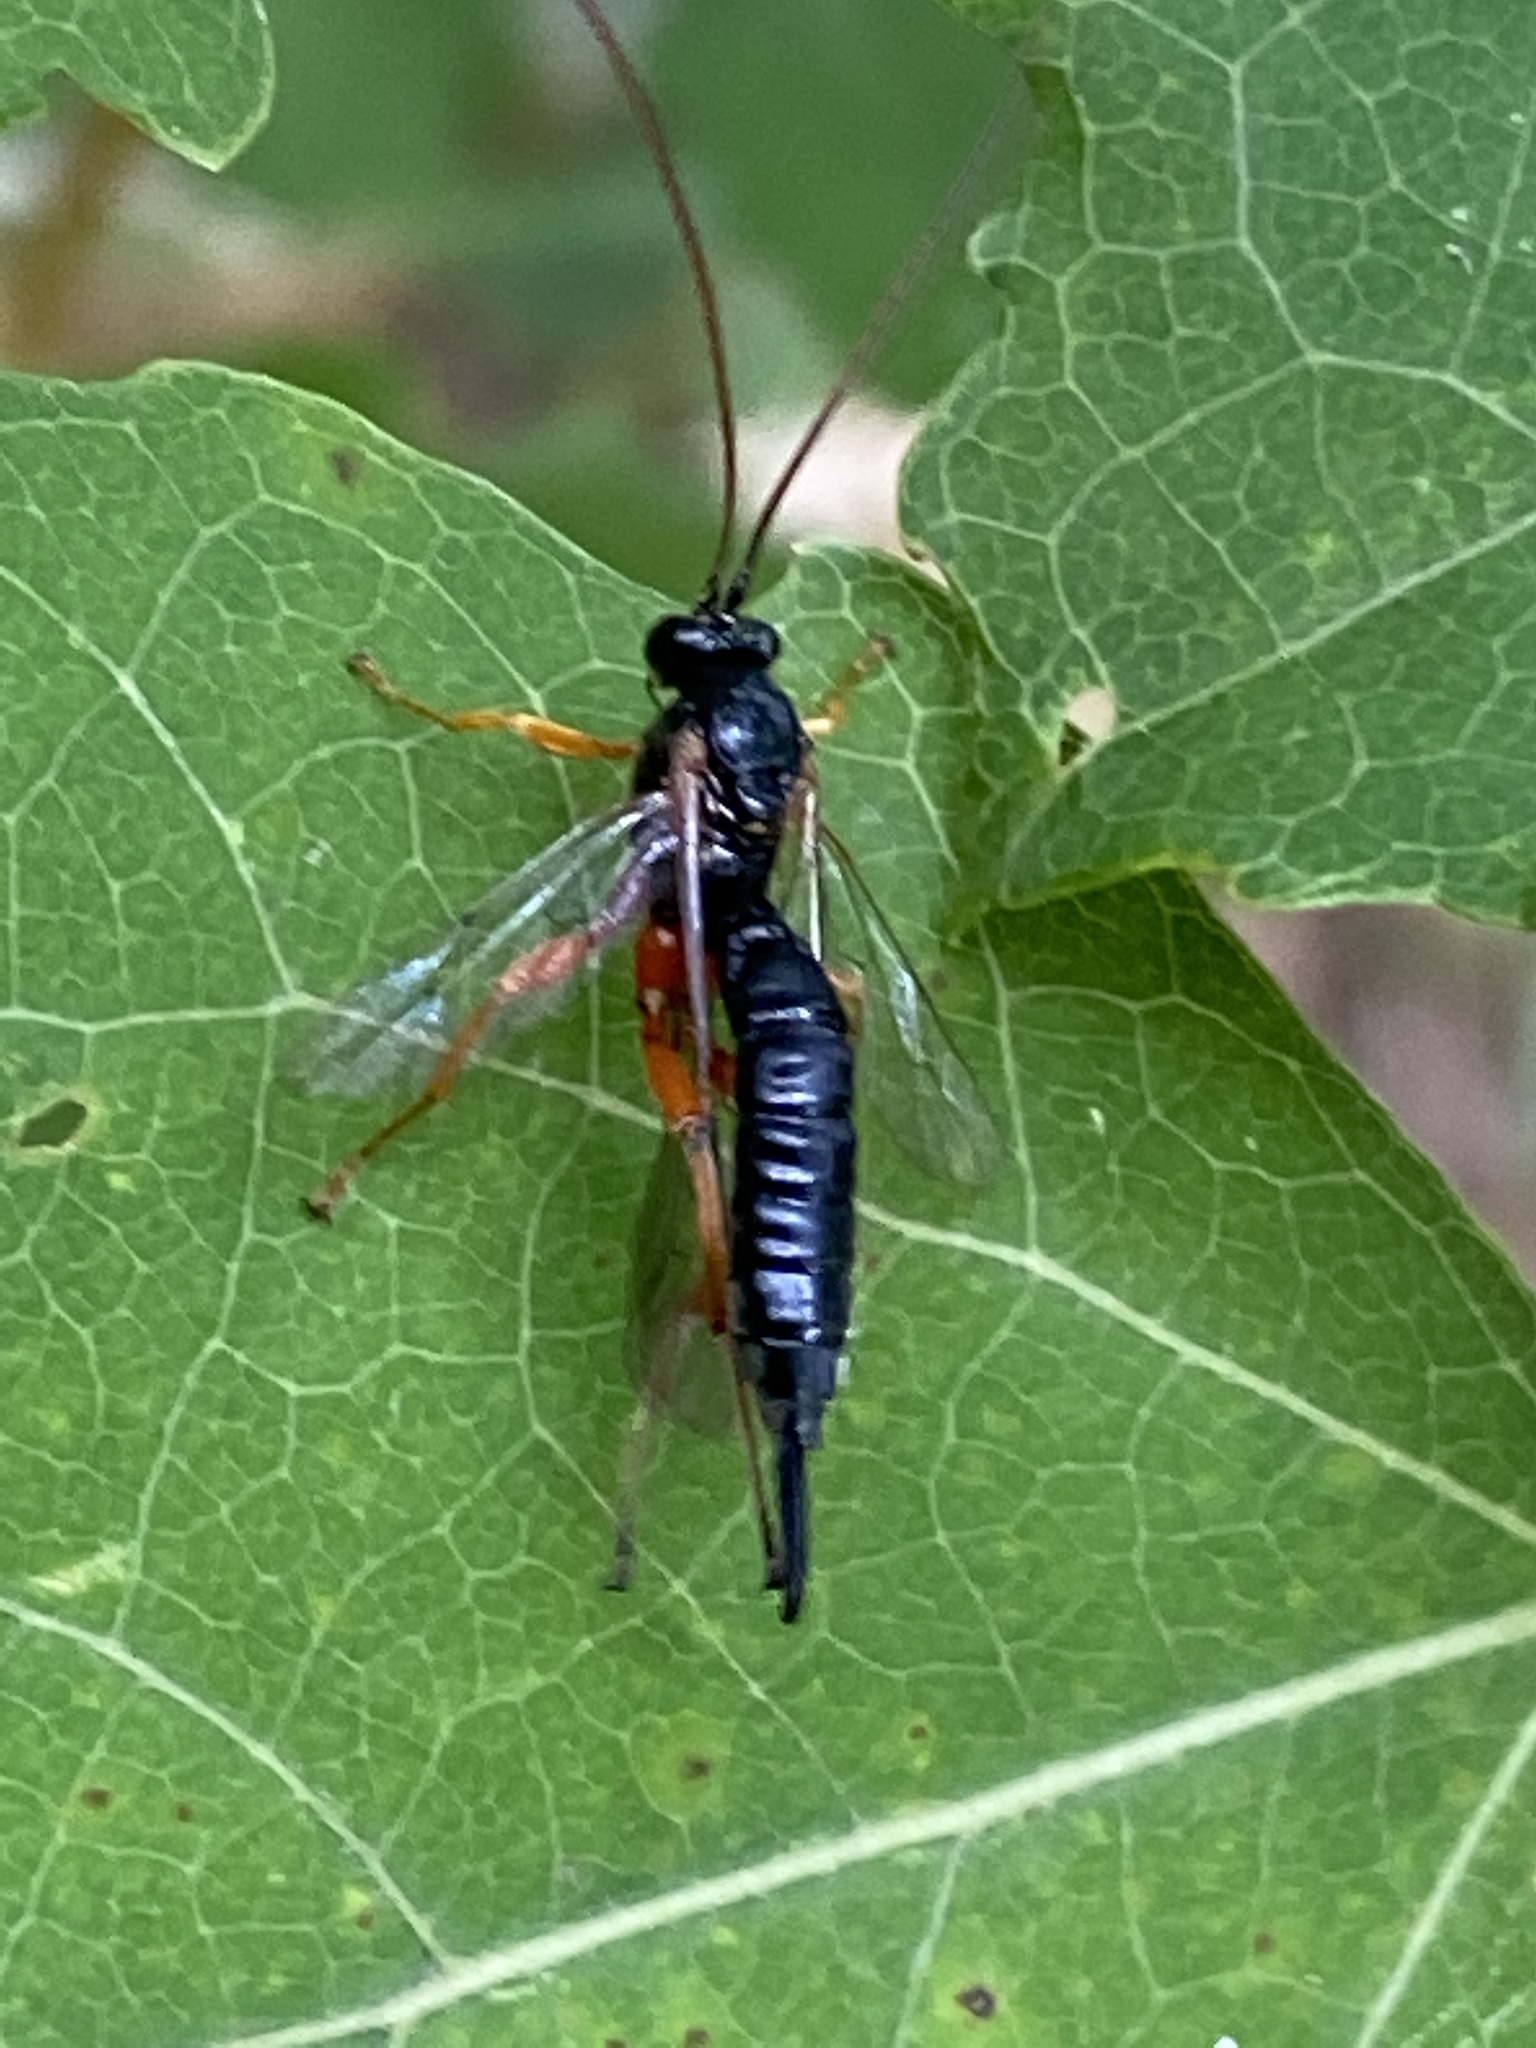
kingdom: Animalia
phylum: Arthropoda
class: Insecta
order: Hymenoptera
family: Ichneumonidae
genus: Apechthis
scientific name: Apechthis compunctor
